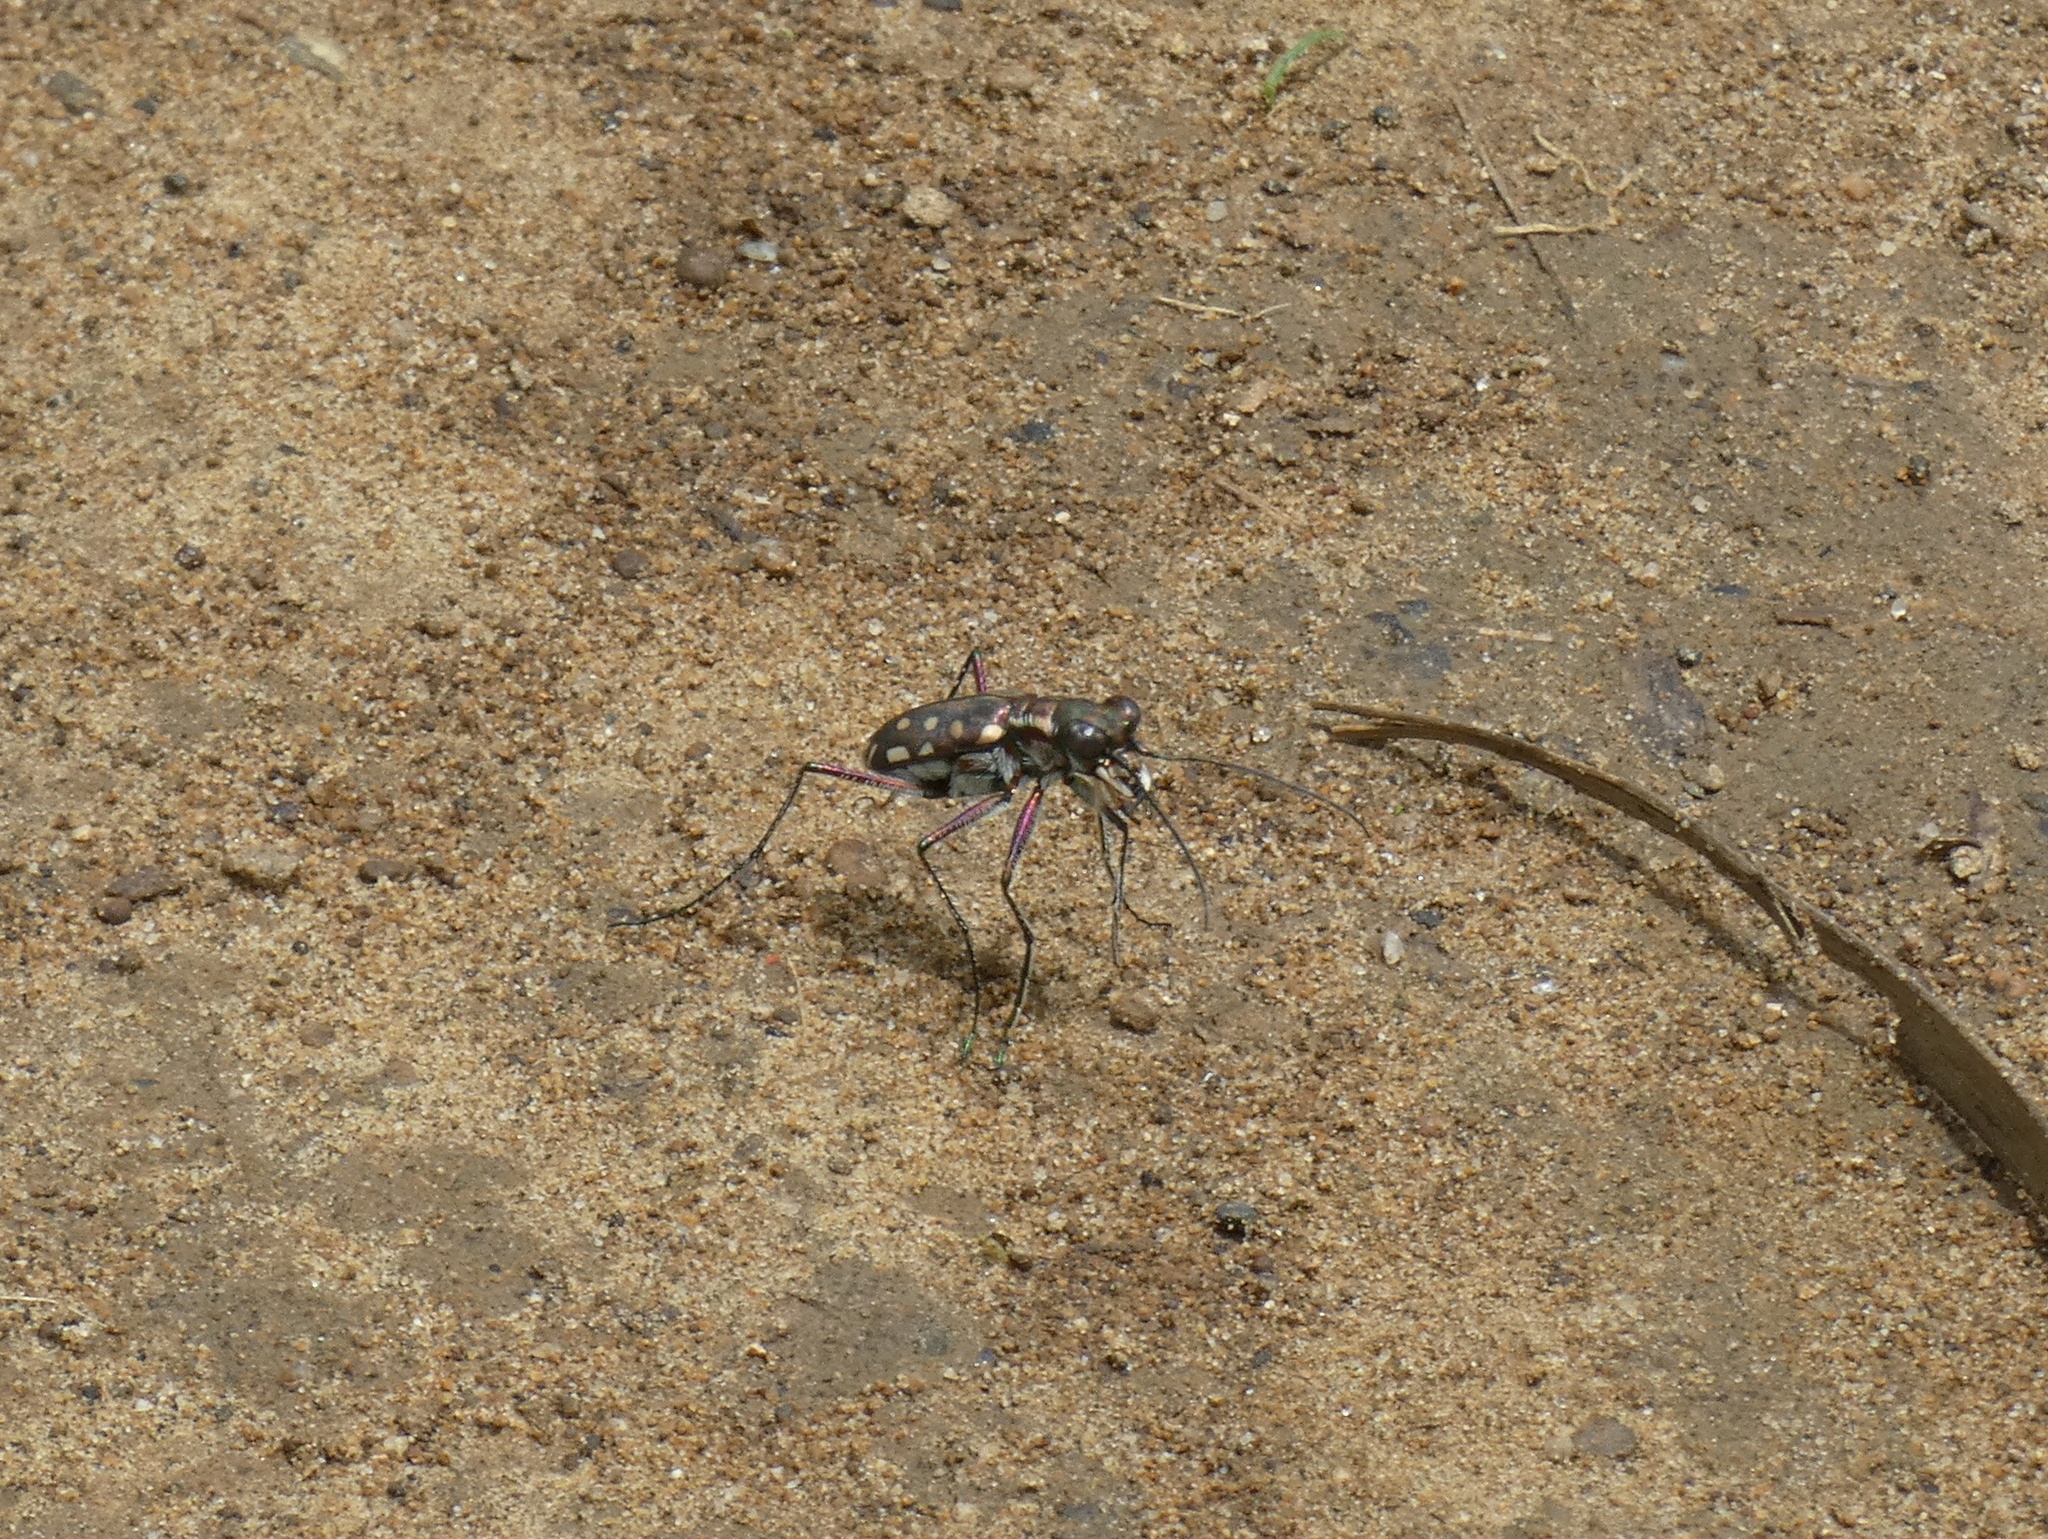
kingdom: Animalia
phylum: Arthropoda
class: Insecta
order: Coleoptera
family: Carabidae
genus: Cicindela
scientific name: Cicindela lacrymosa
